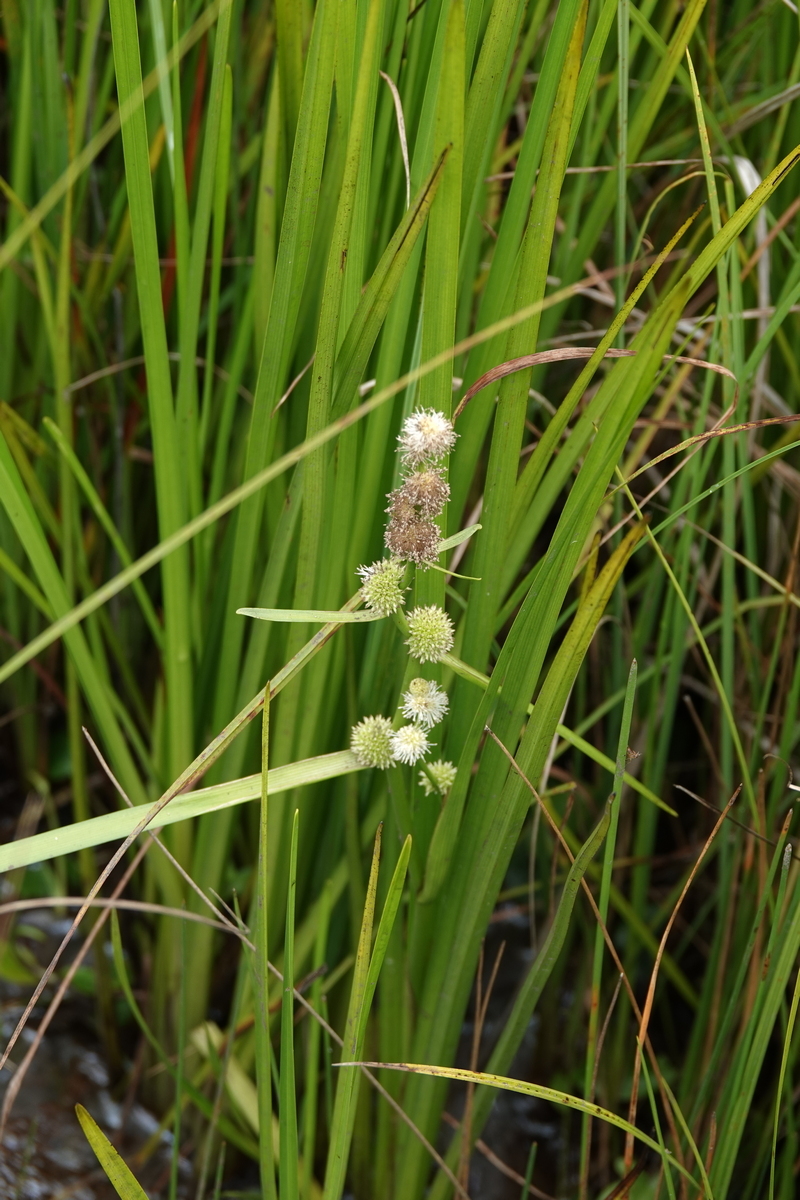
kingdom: Plantae
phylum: Tracheophyta
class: Liliopsida
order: Poales
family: Typhaceae
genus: Sparganium
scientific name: Sparganium subglobosum
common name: Burr­-reed
